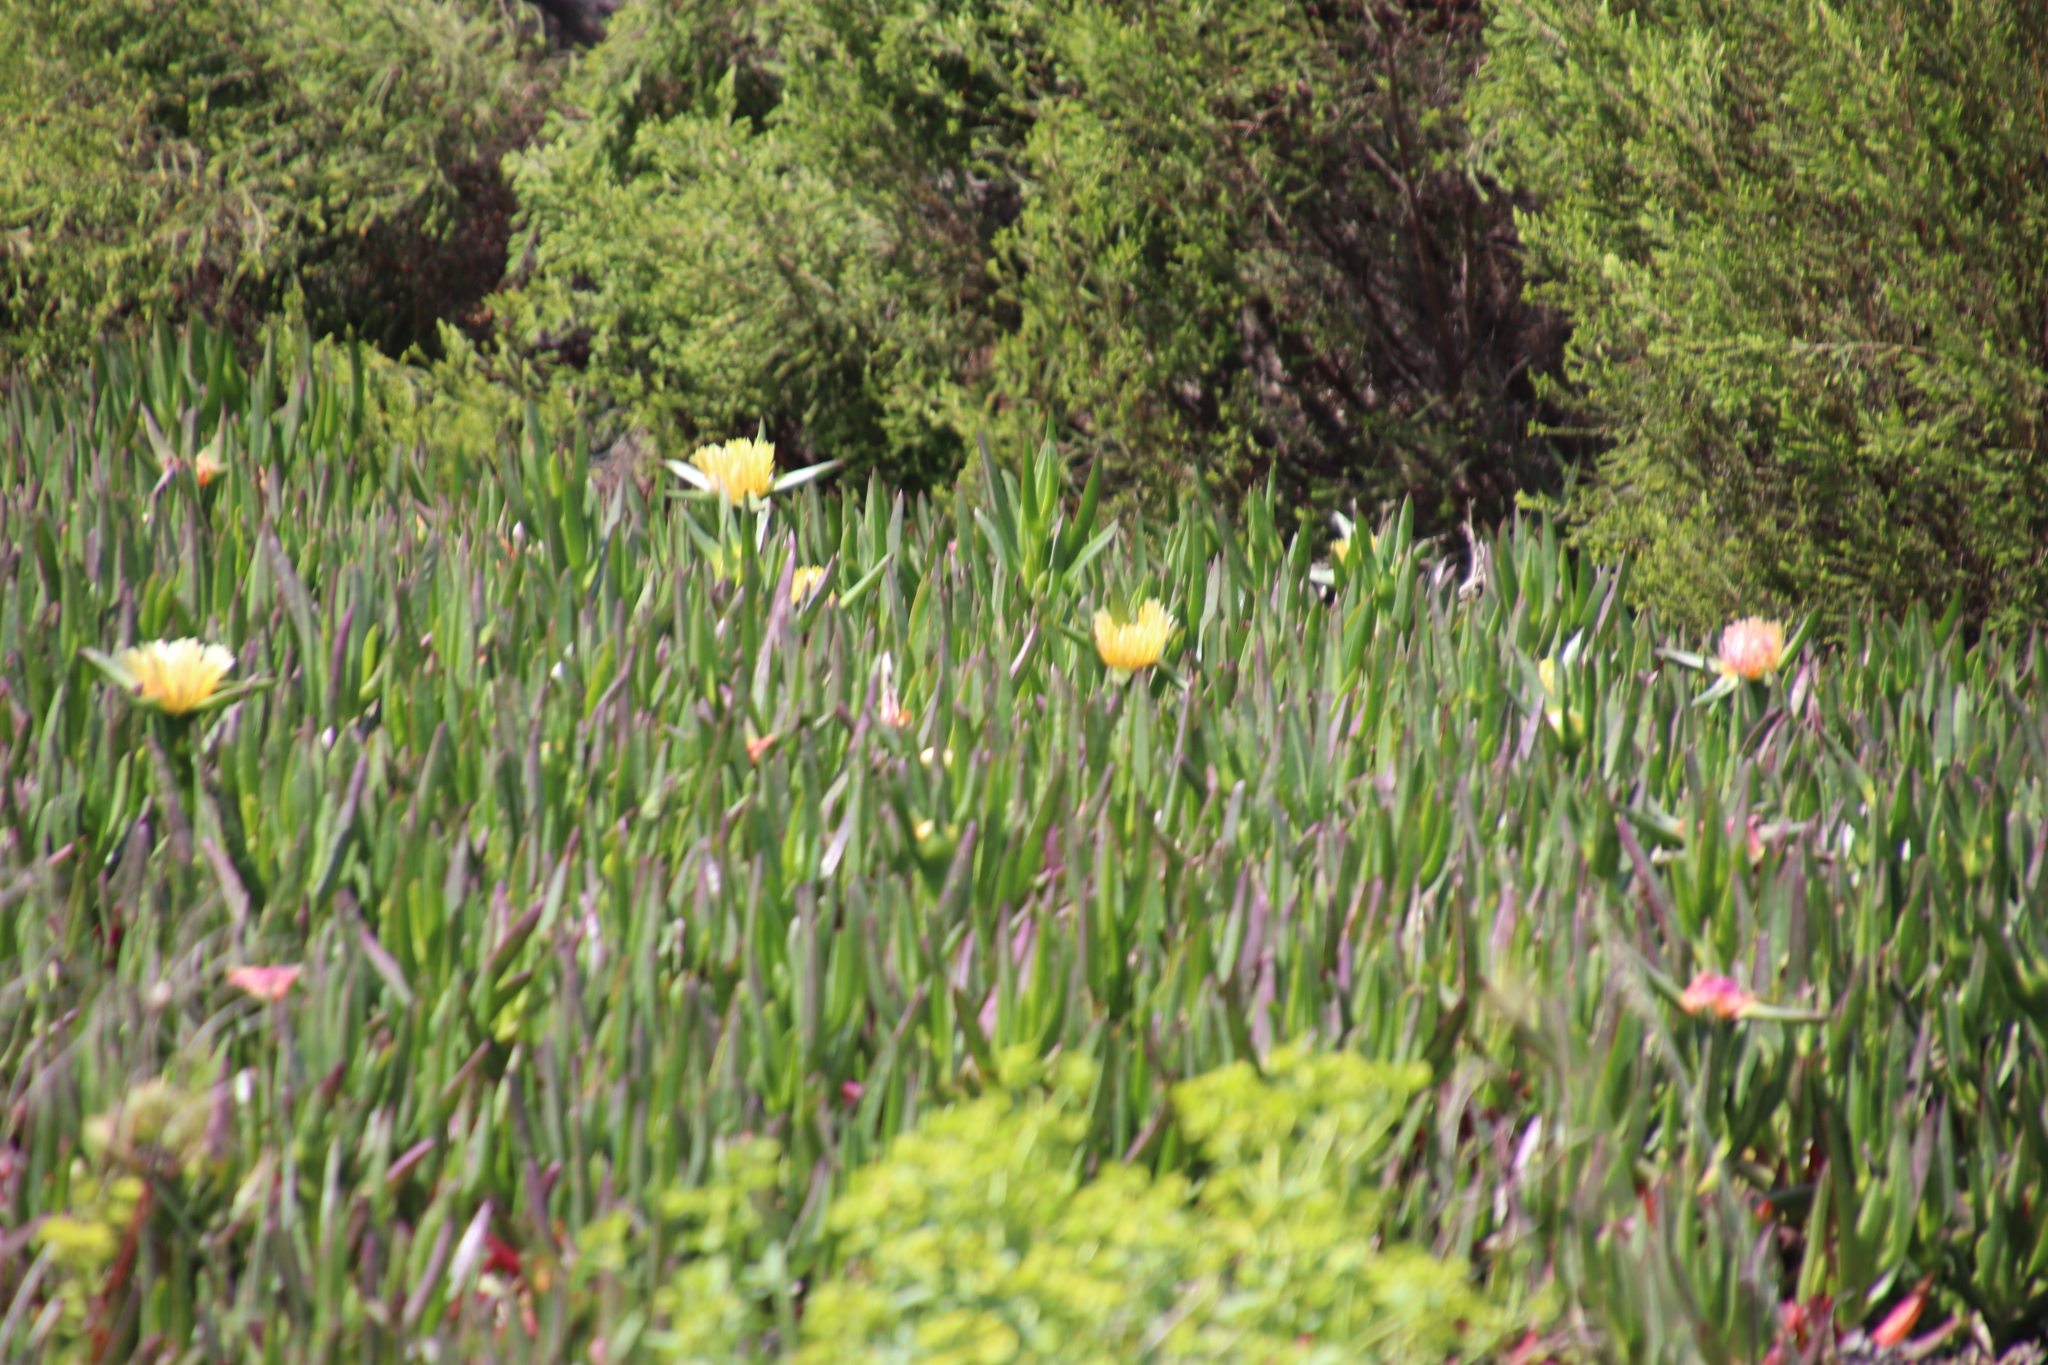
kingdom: Plantae
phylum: Tracheophyta
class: Magnoliopsida
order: Caryophyllales
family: Aizoaceae
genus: Carpobrotus
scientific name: Carpobrotus edulis
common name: Hottentot-fig
